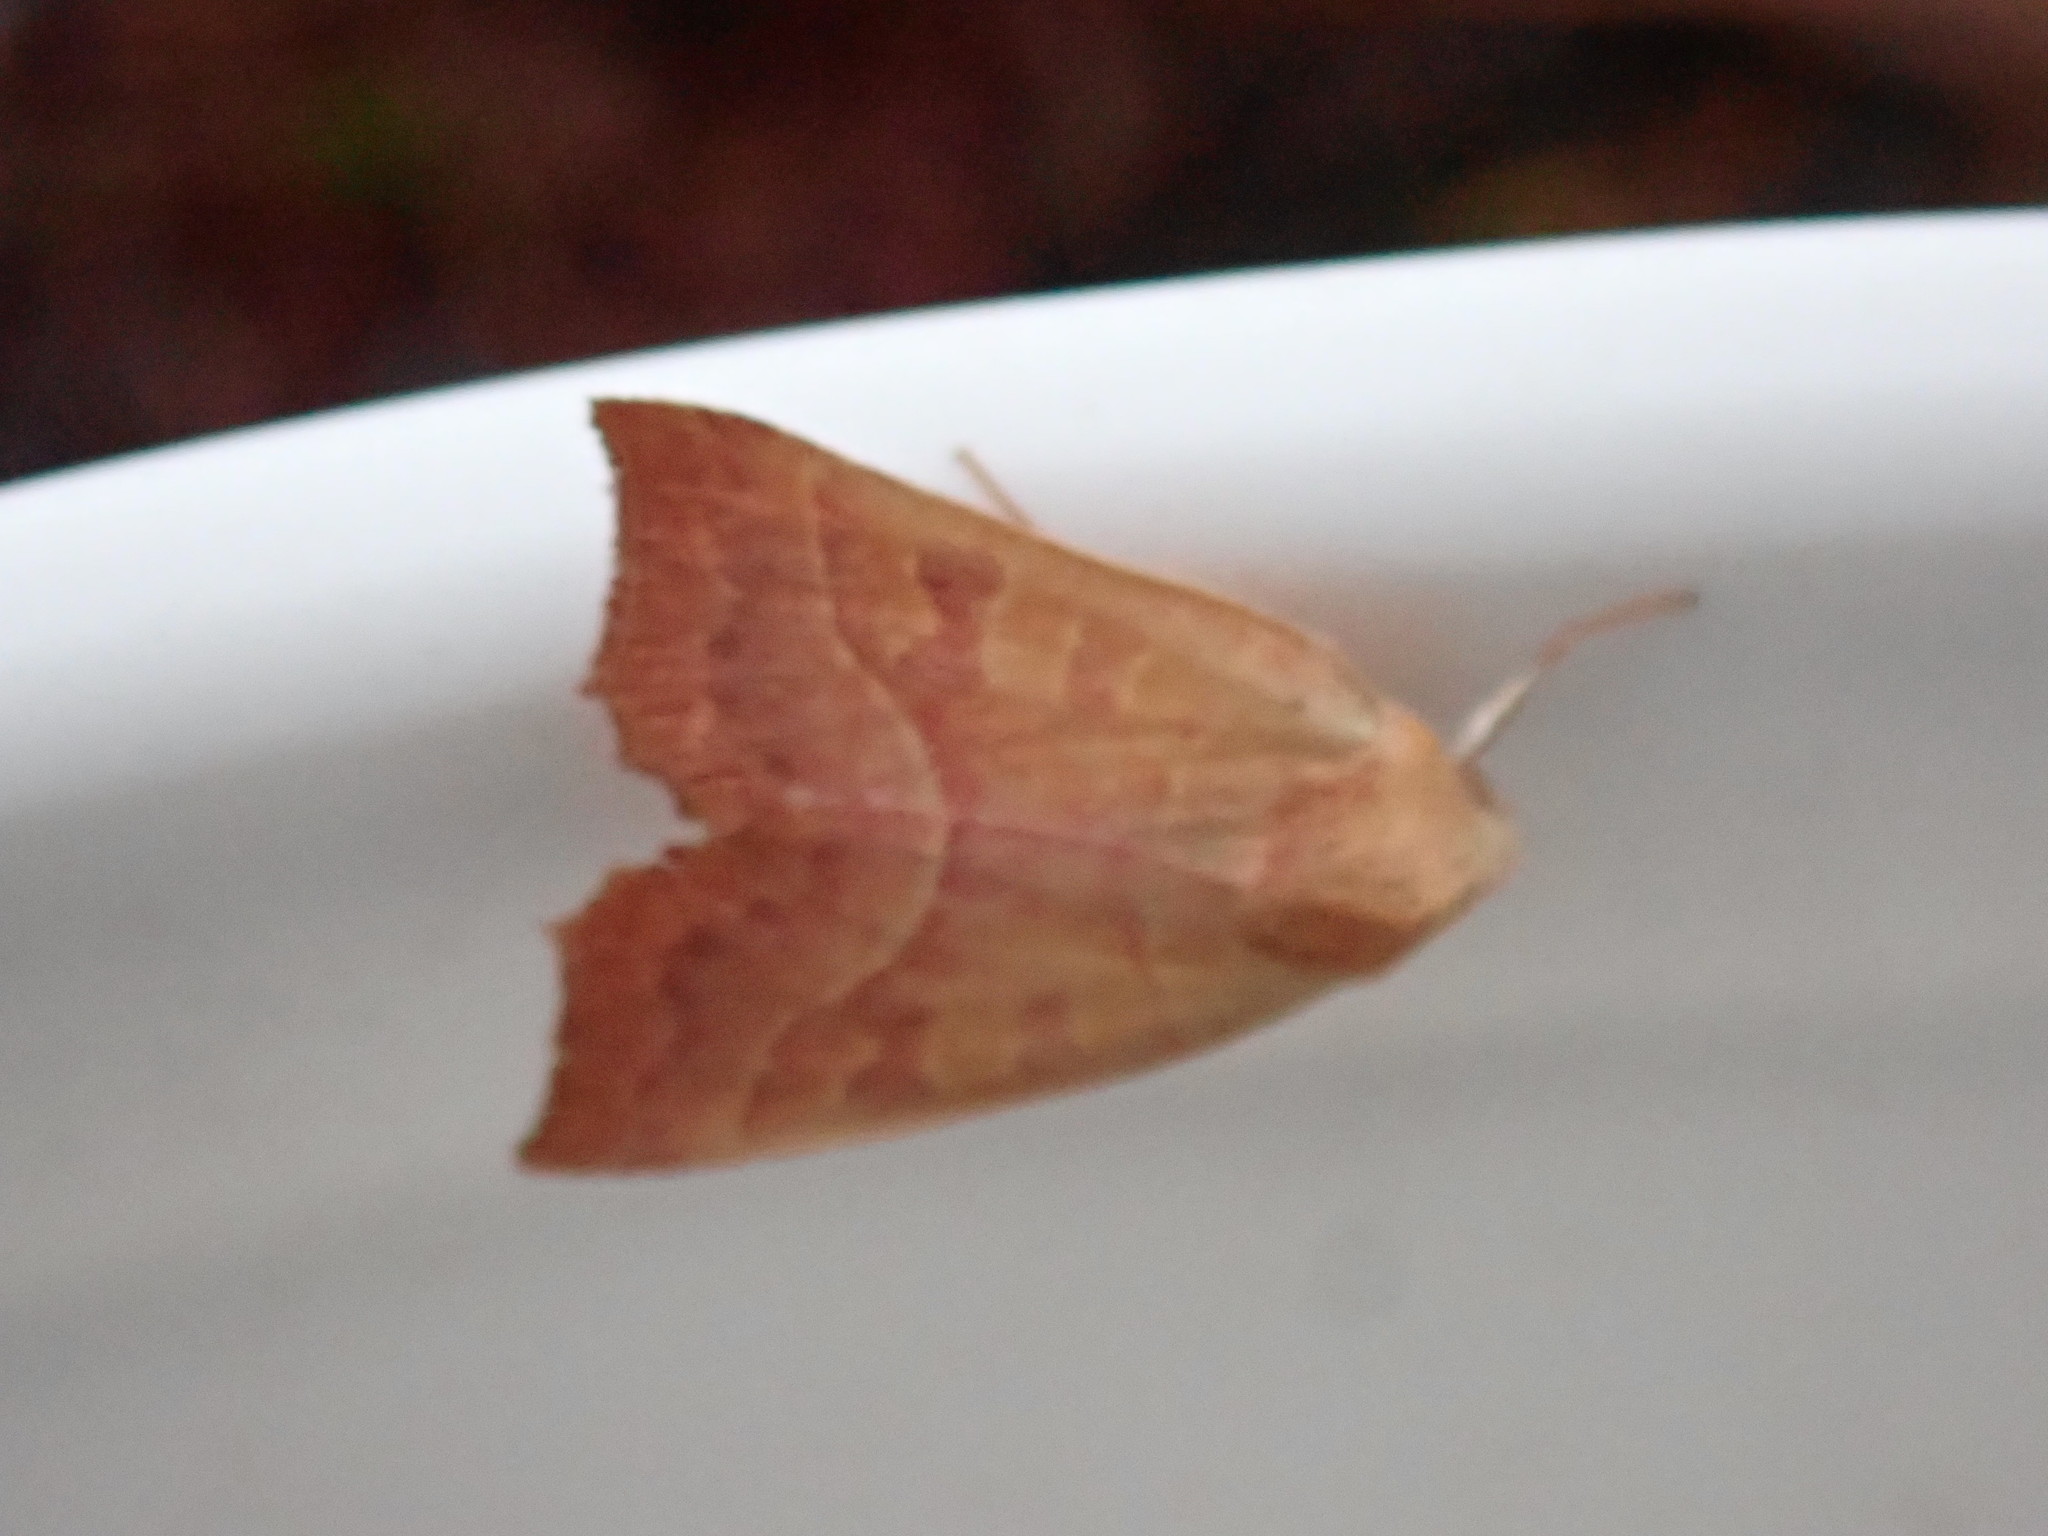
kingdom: Animalia
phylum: Arthropoda
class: Insecta
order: Lepidoptera
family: Noctuidae
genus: Eucirroedia
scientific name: Eucirroedia pampina
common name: Scalloped sallow
